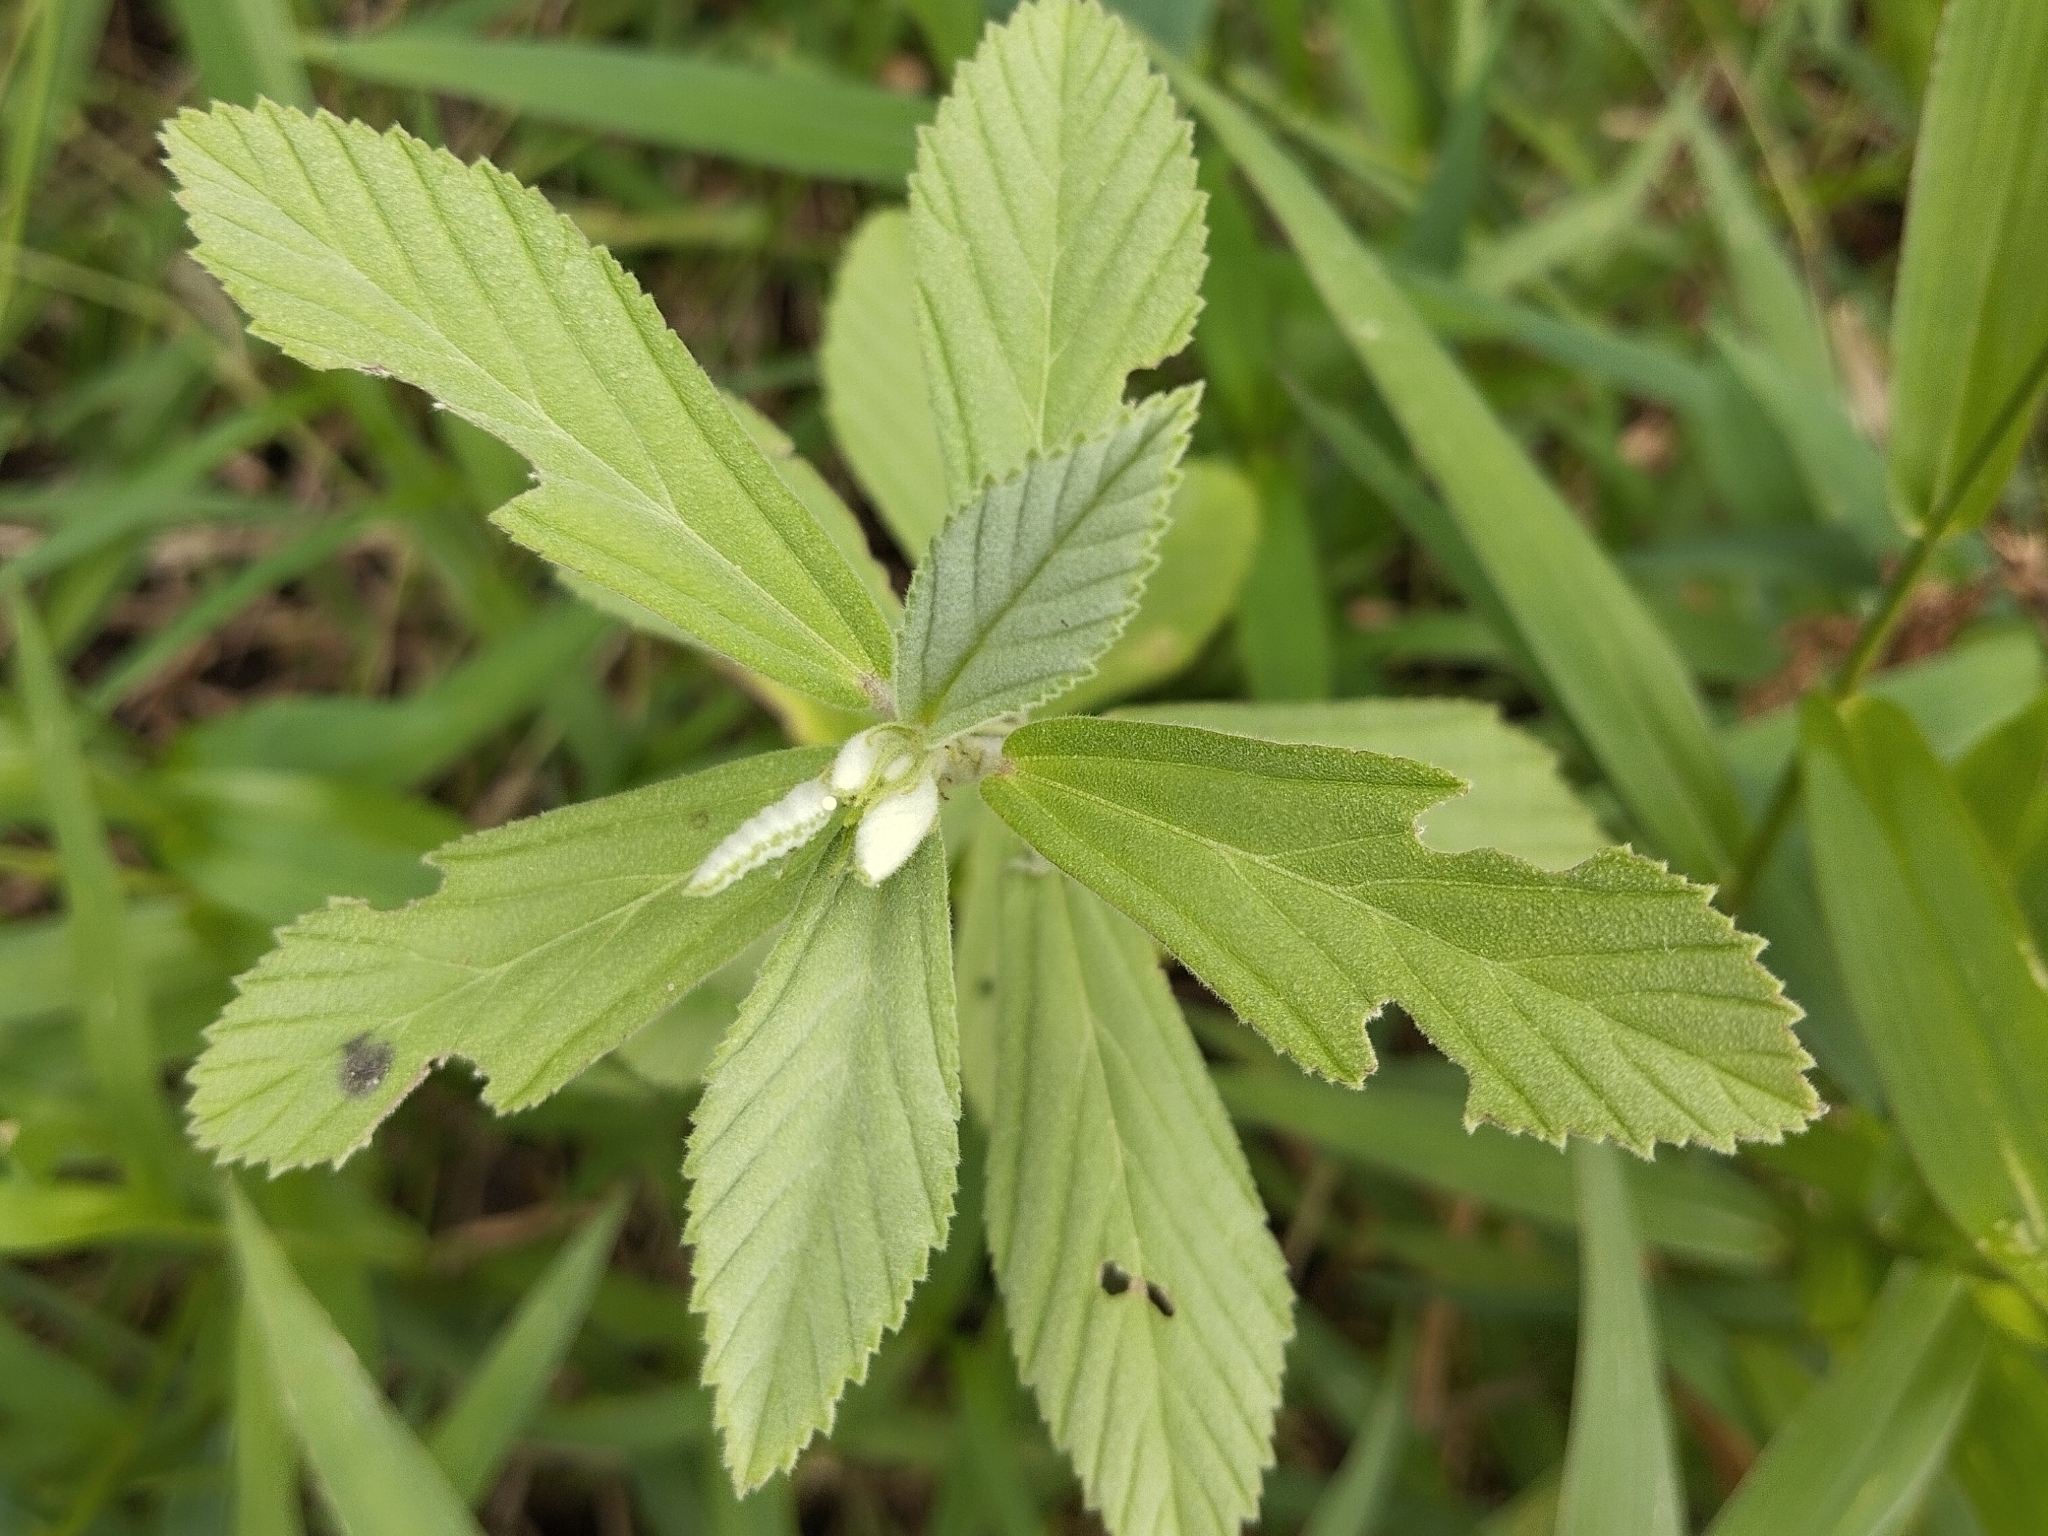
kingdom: Plantae
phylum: Tracheophyta
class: Magnoliopsida
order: Malvales
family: Malvaceae
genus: Waltheria
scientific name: Waltheria indica
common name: Leather-coat
